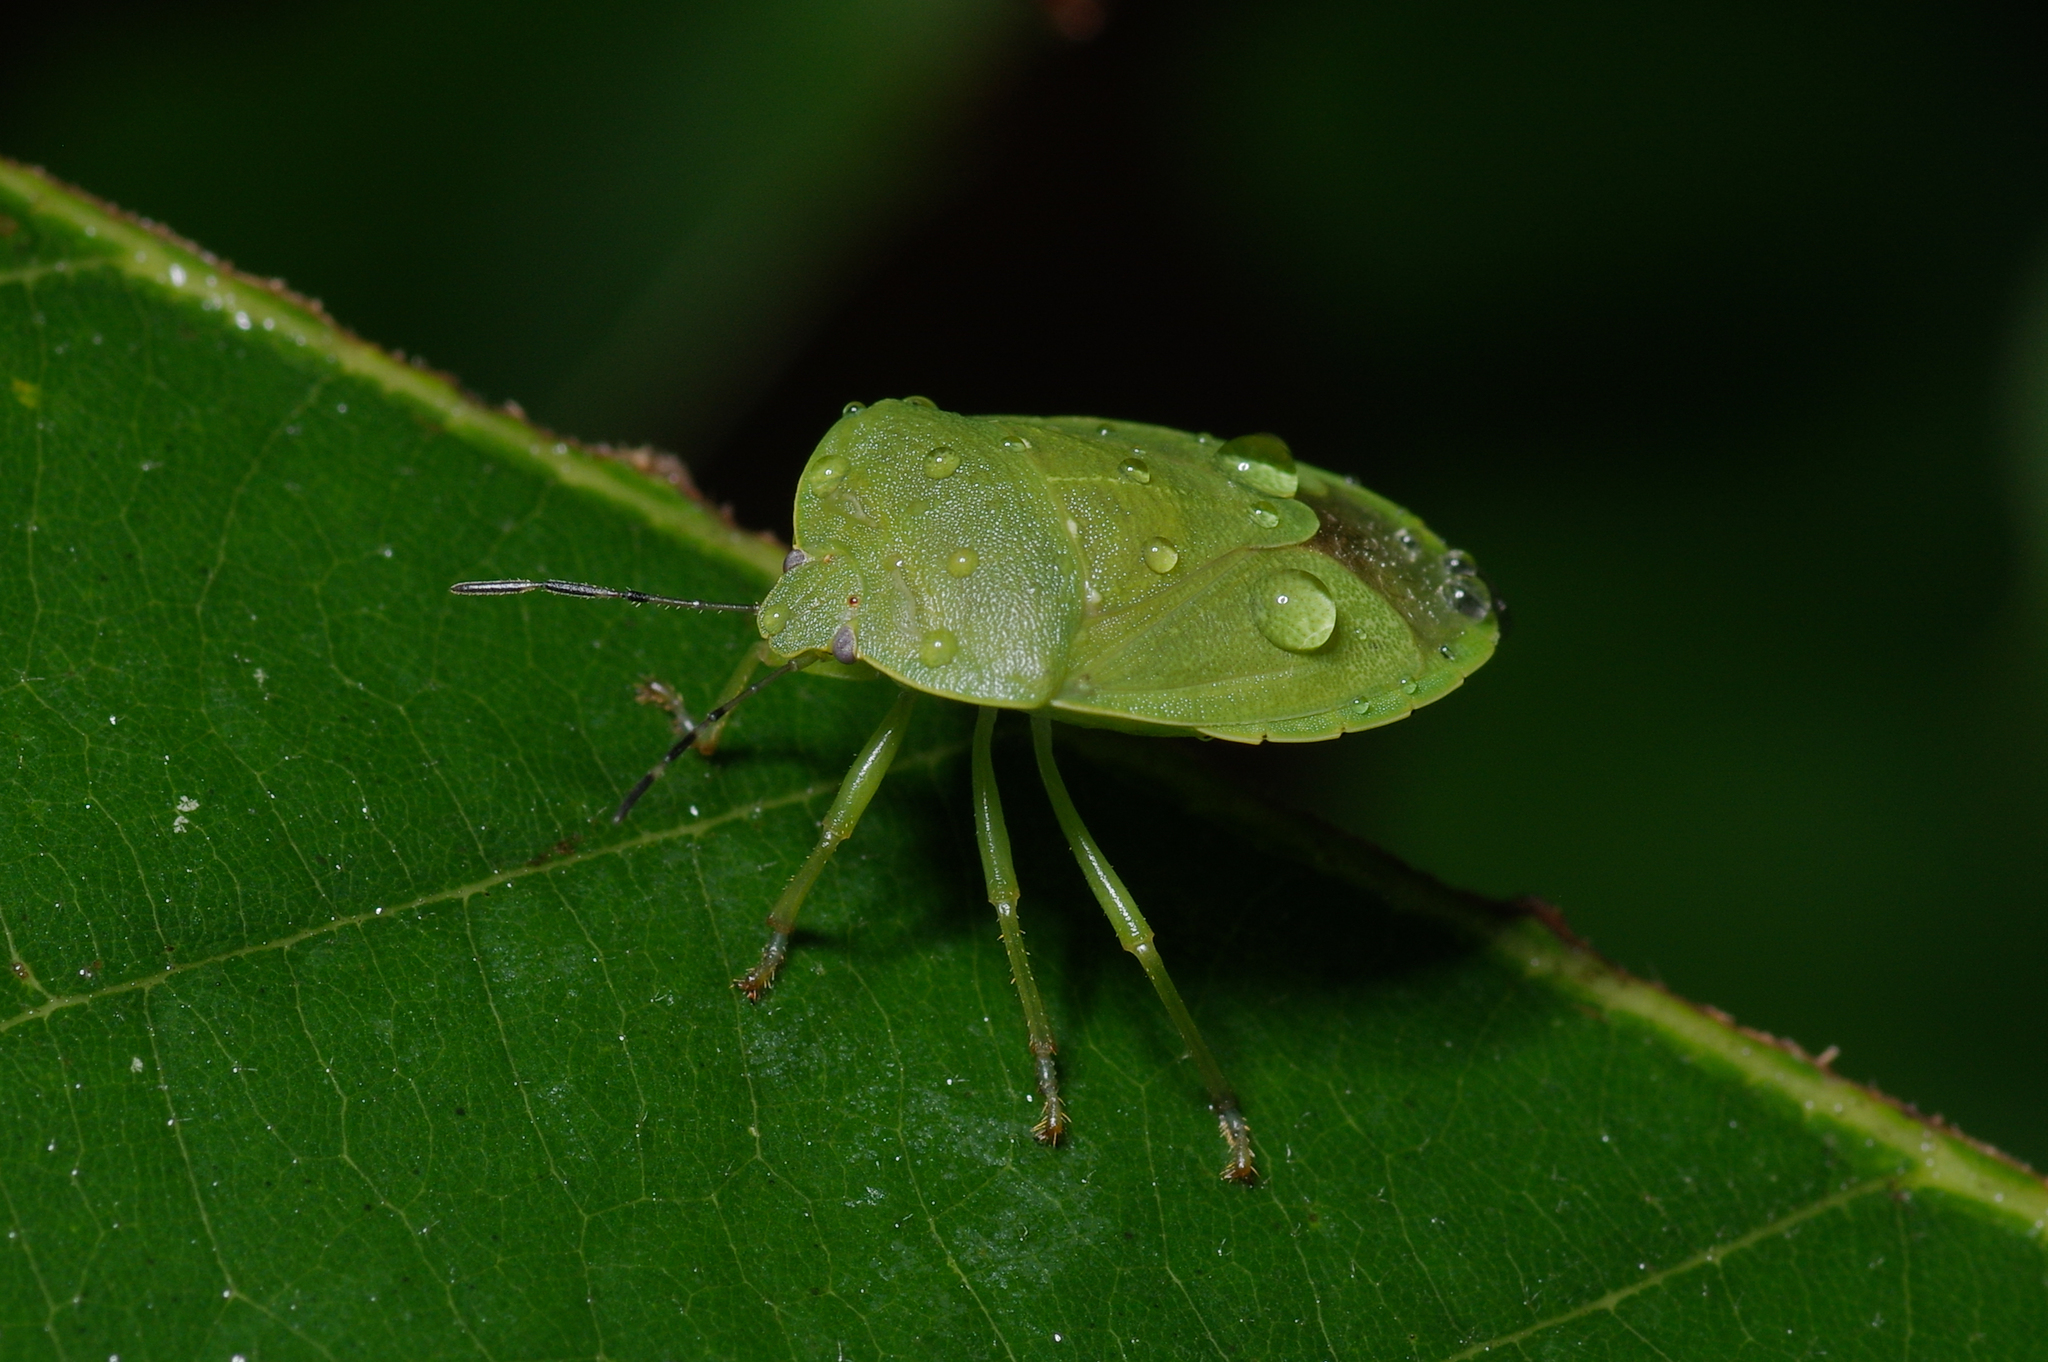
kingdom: Animalia
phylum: Arthropoda
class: Insecta
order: Hemiptera
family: Pentatomidae
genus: Chinavia
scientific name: Chinavia
